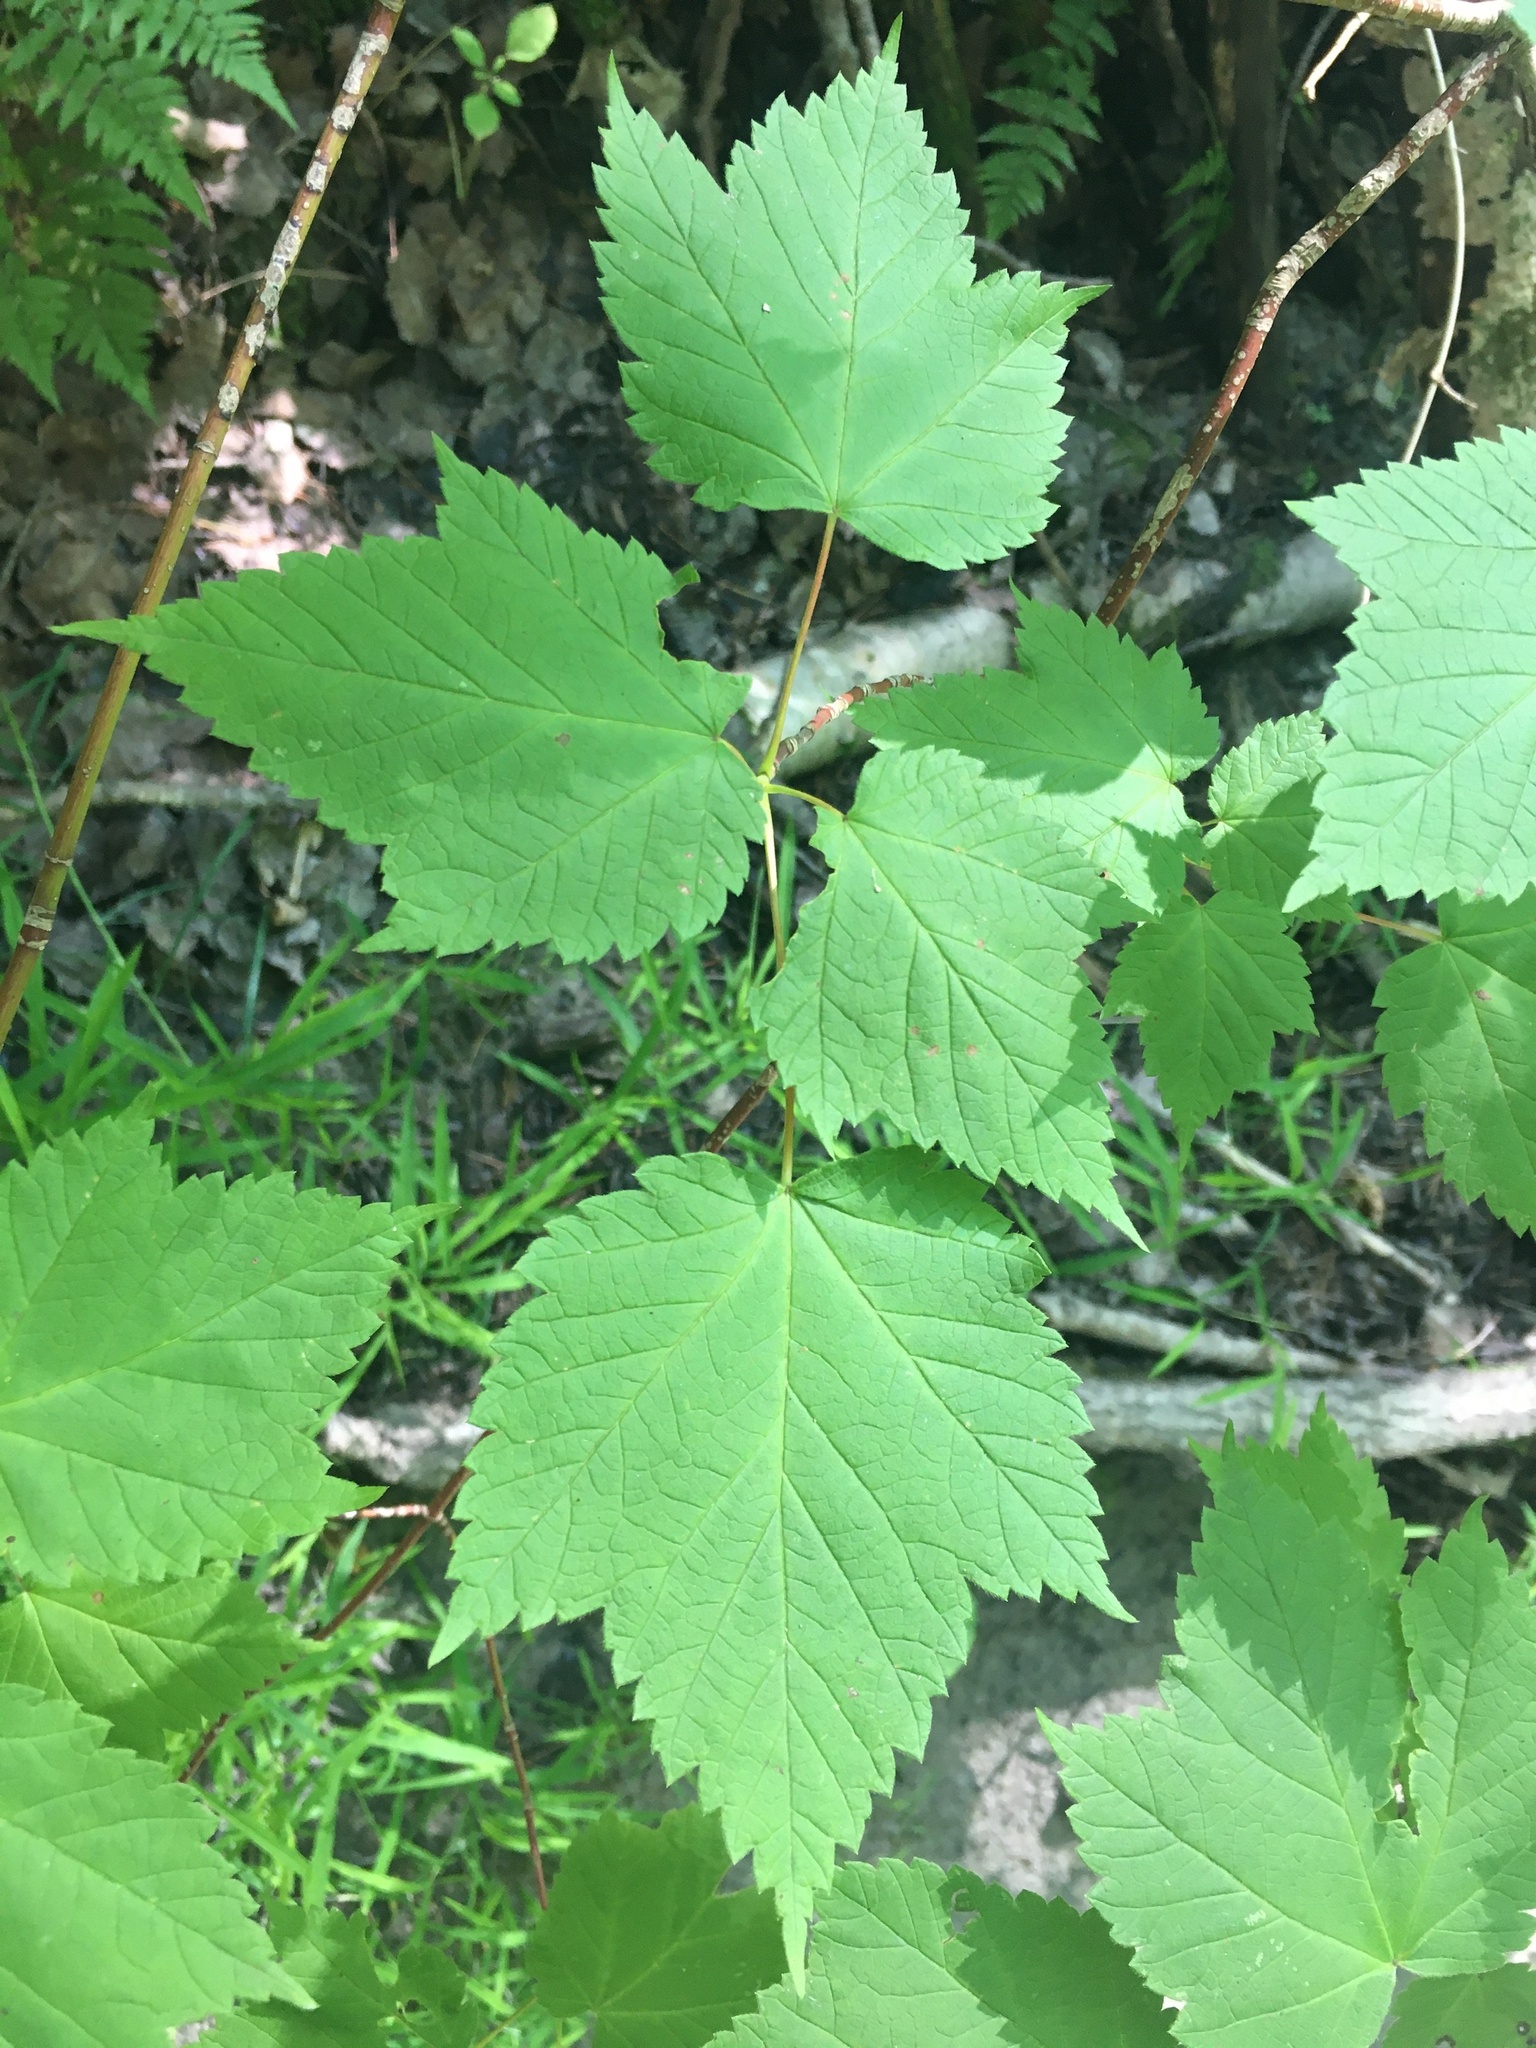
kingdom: Plantae
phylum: Tracheophyta
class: Magnoliopsida
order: Sapindales
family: Sapindaceae
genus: Acer
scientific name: Acer spicatum
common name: Mountain maple
